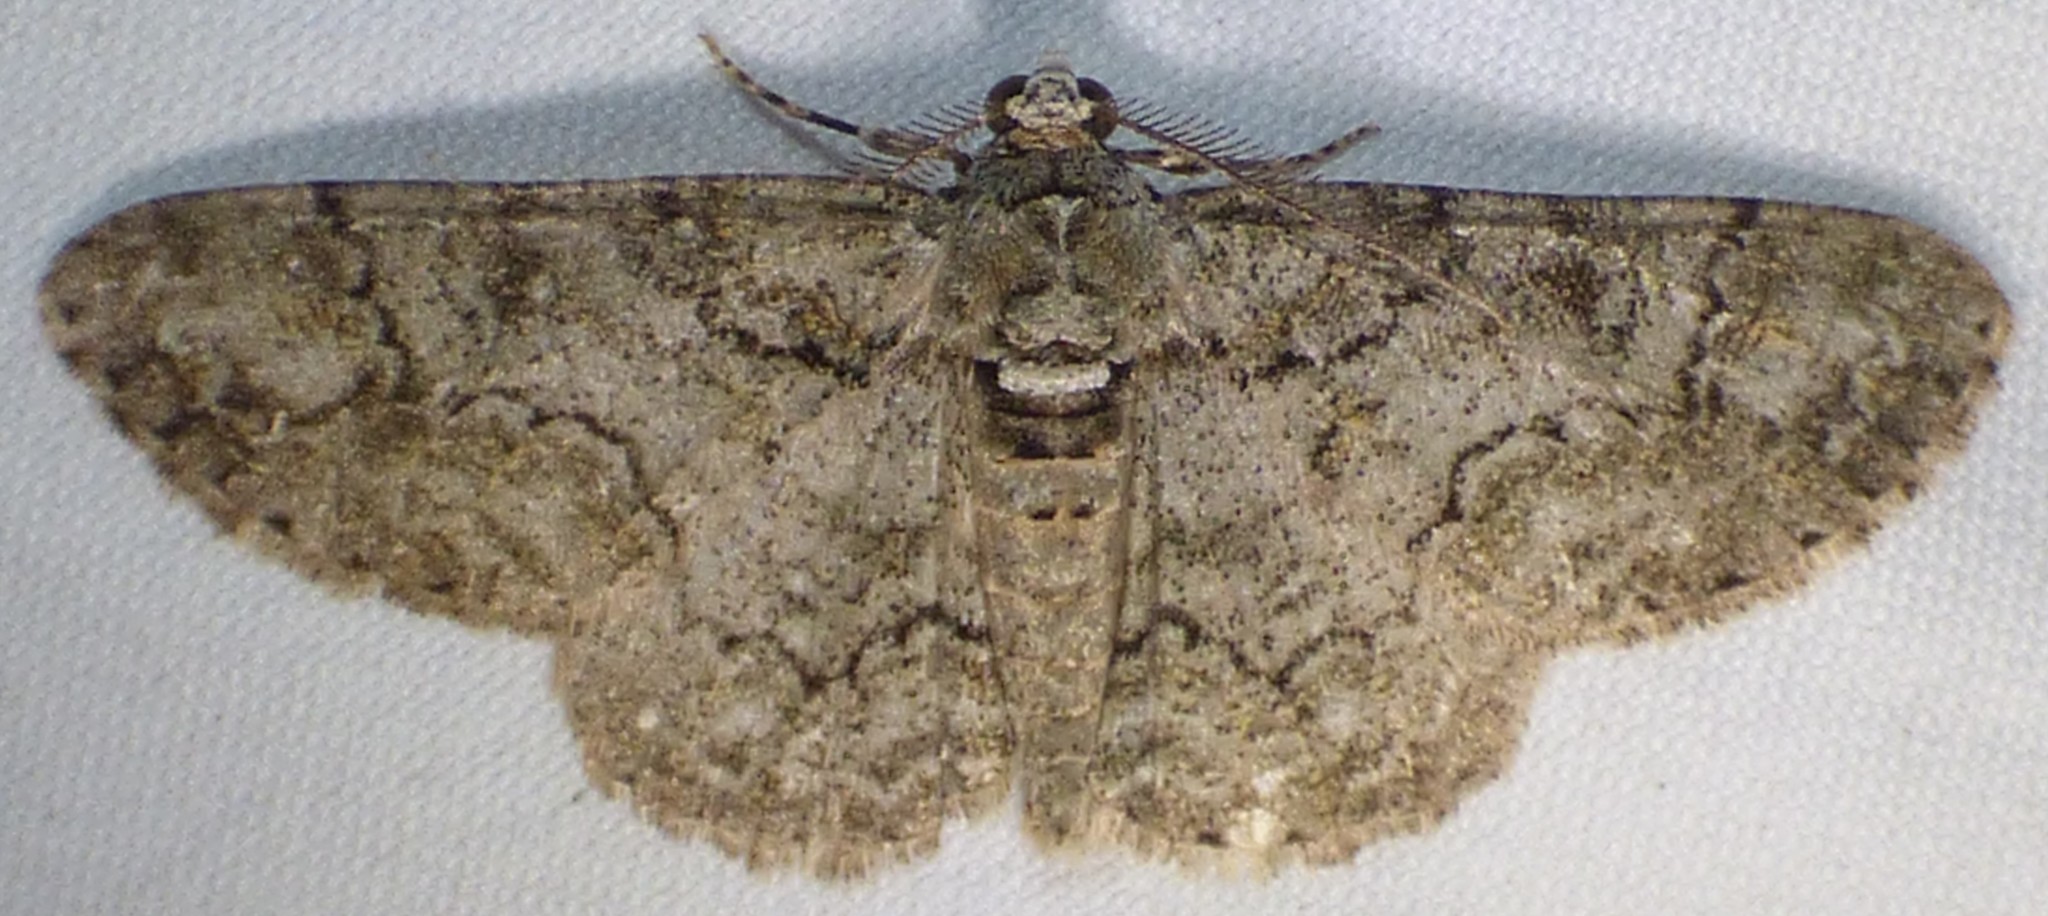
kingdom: Animalia
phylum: Arthropoda
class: Insecta
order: Lepidoptera
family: Geometridae
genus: Cleora
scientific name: Cleora sublunaria
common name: Double-lined gray
